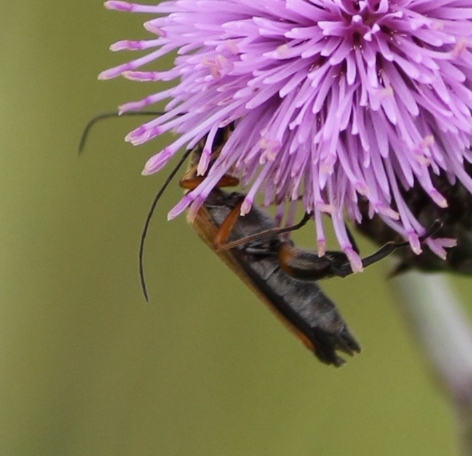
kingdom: Animalia
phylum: Arthropoda
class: Insecta
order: Coleoptera
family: Oedemeridae
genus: Oedemera
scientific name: Oedemera podagrariae
